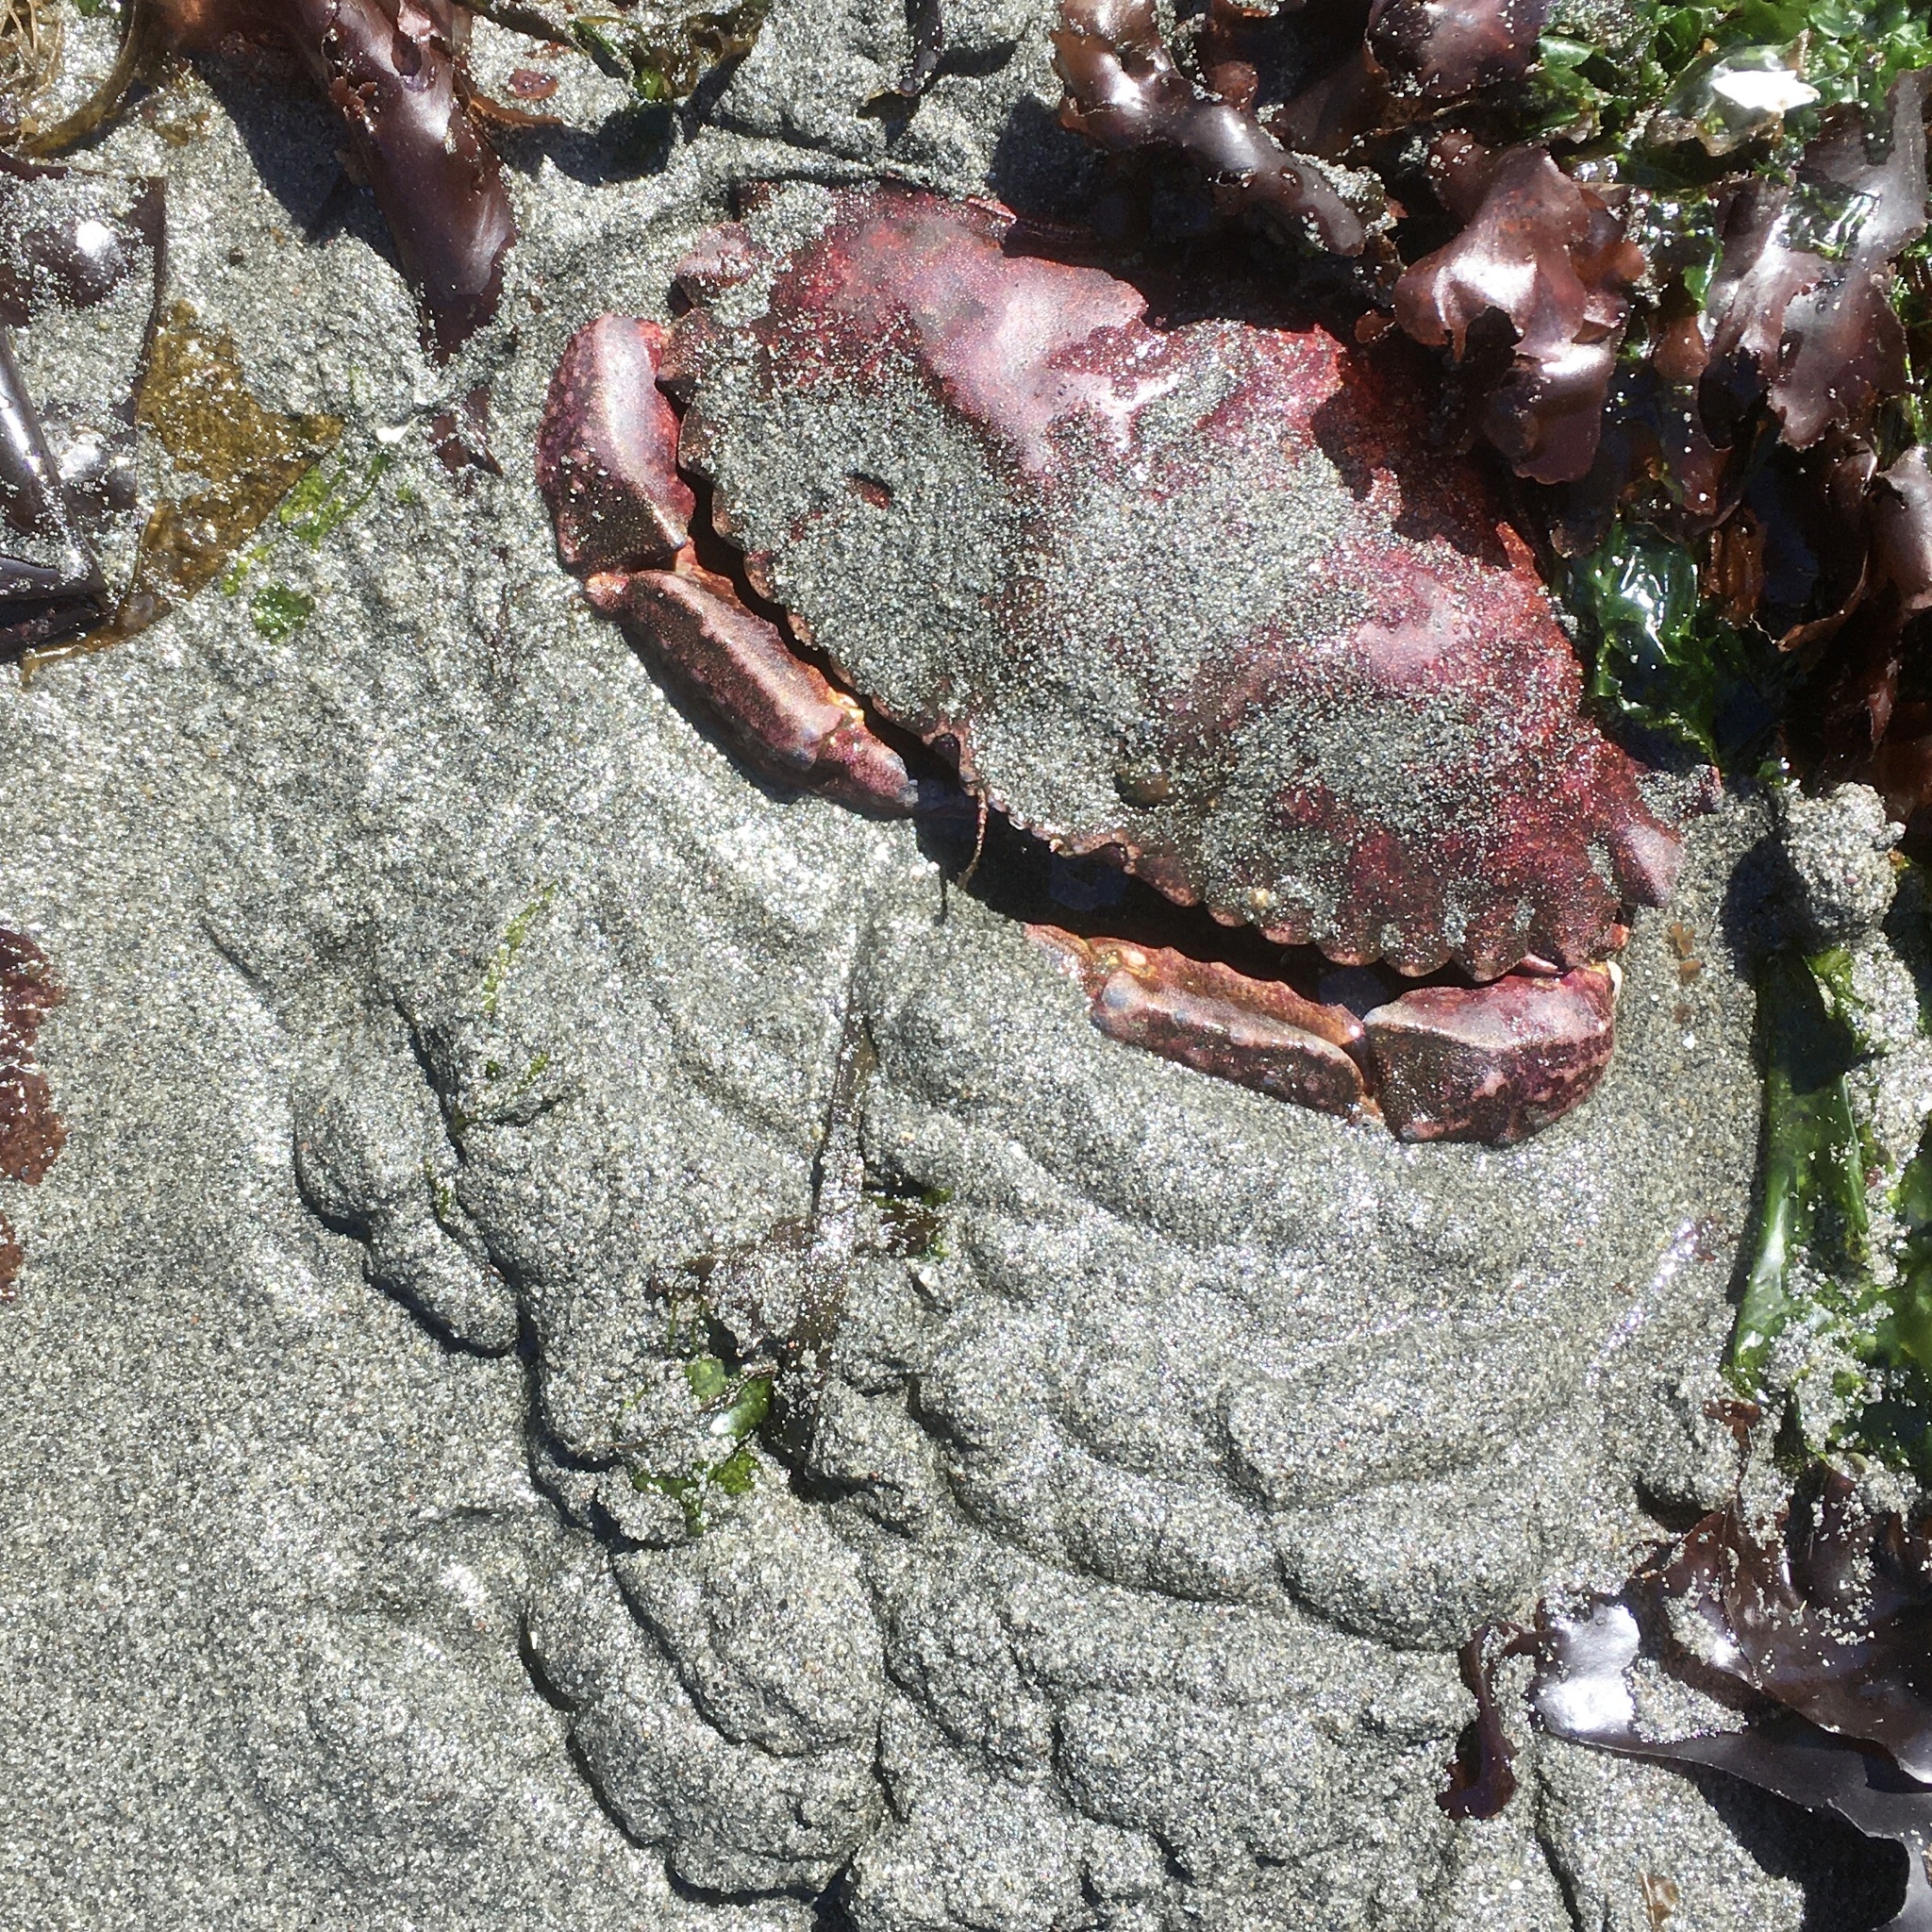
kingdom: Animalia
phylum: Arthropoda
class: Malacostraca
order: Decapoda
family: Cancridae
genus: Cancer
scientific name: Cancer productus
